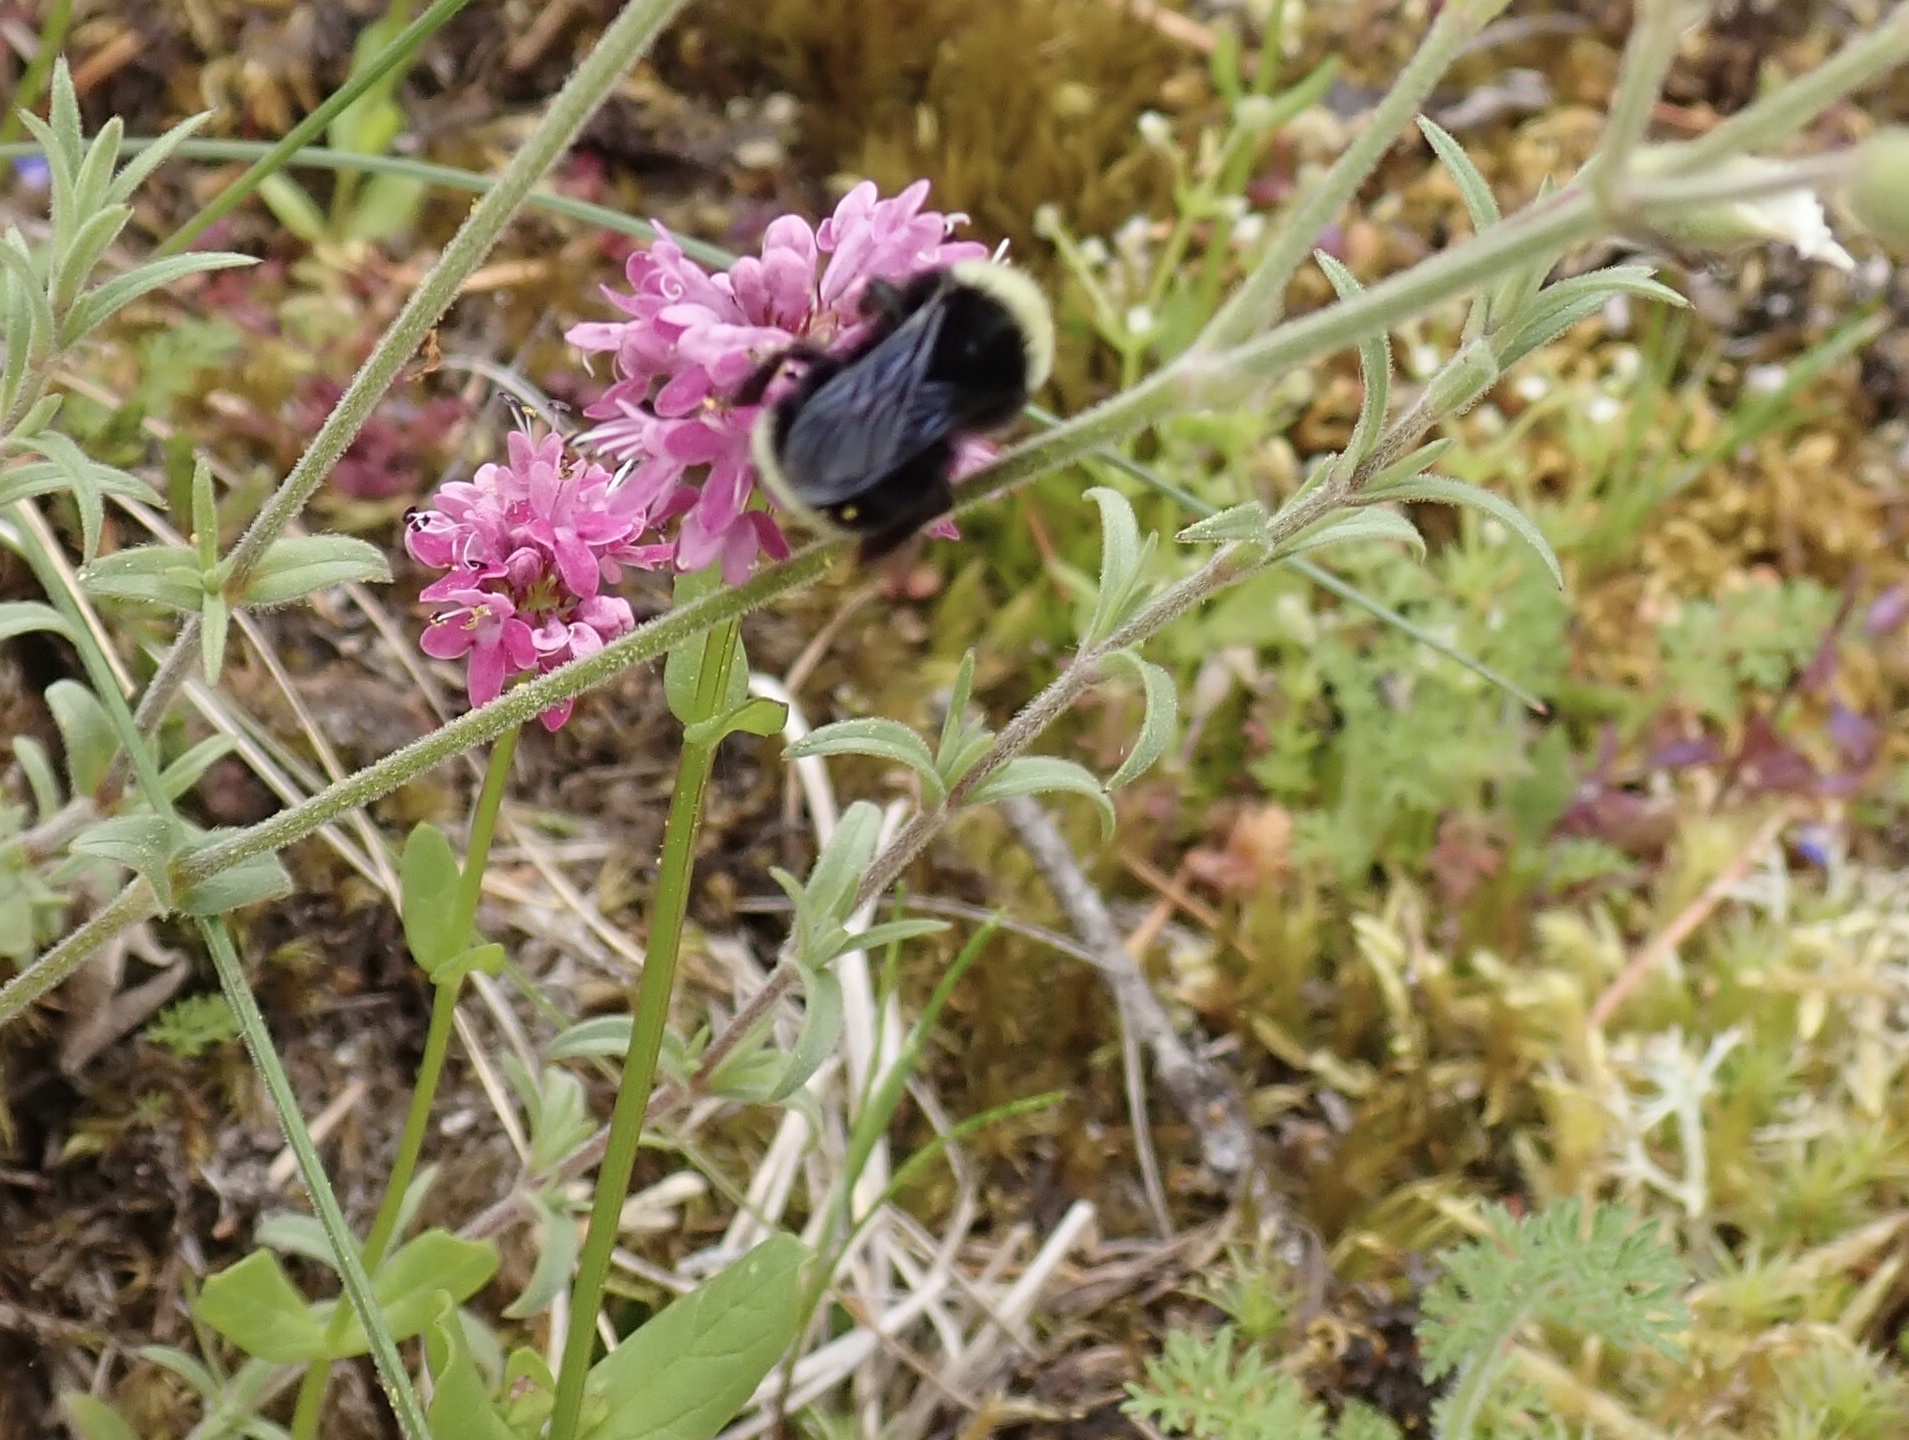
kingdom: Plantae
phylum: Tracheophyta
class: Magnoliopsida
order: Dipsacales
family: Caprifoliaceae
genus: Plectritis
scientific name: Plectritis congesta
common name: Pink plectritis
